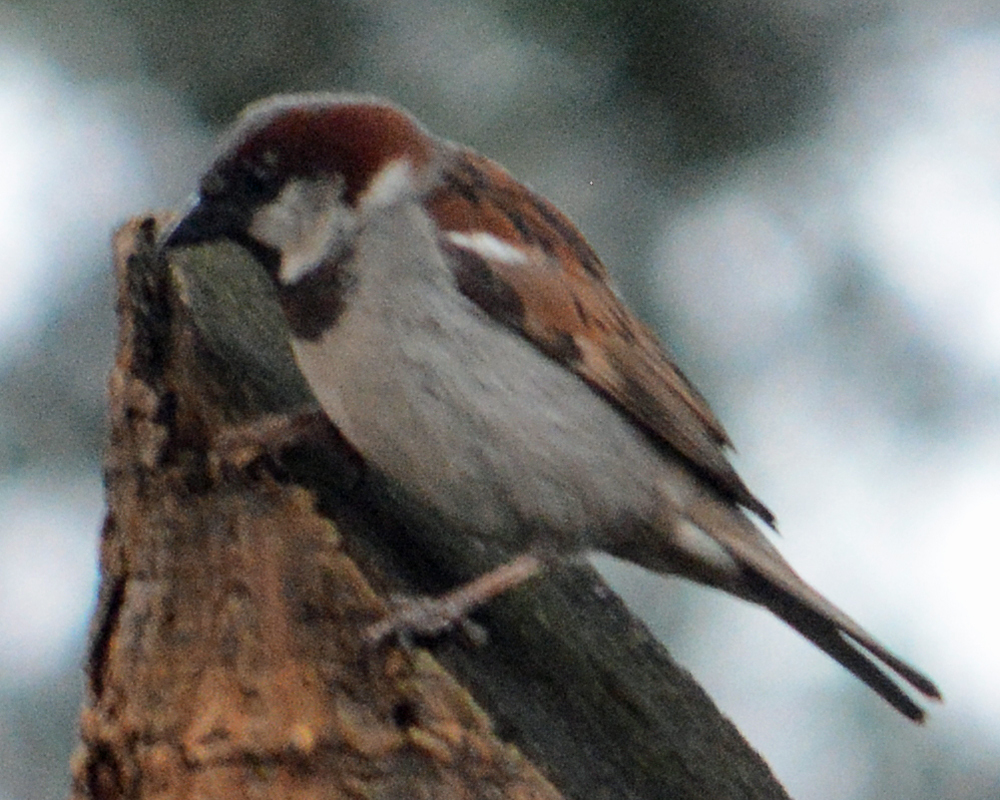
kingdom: Animalia
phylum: Chordata
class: Aves
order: Passeriformes
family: Passeridae
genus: Passer
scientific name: Passer domesticus
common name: House sparrow
